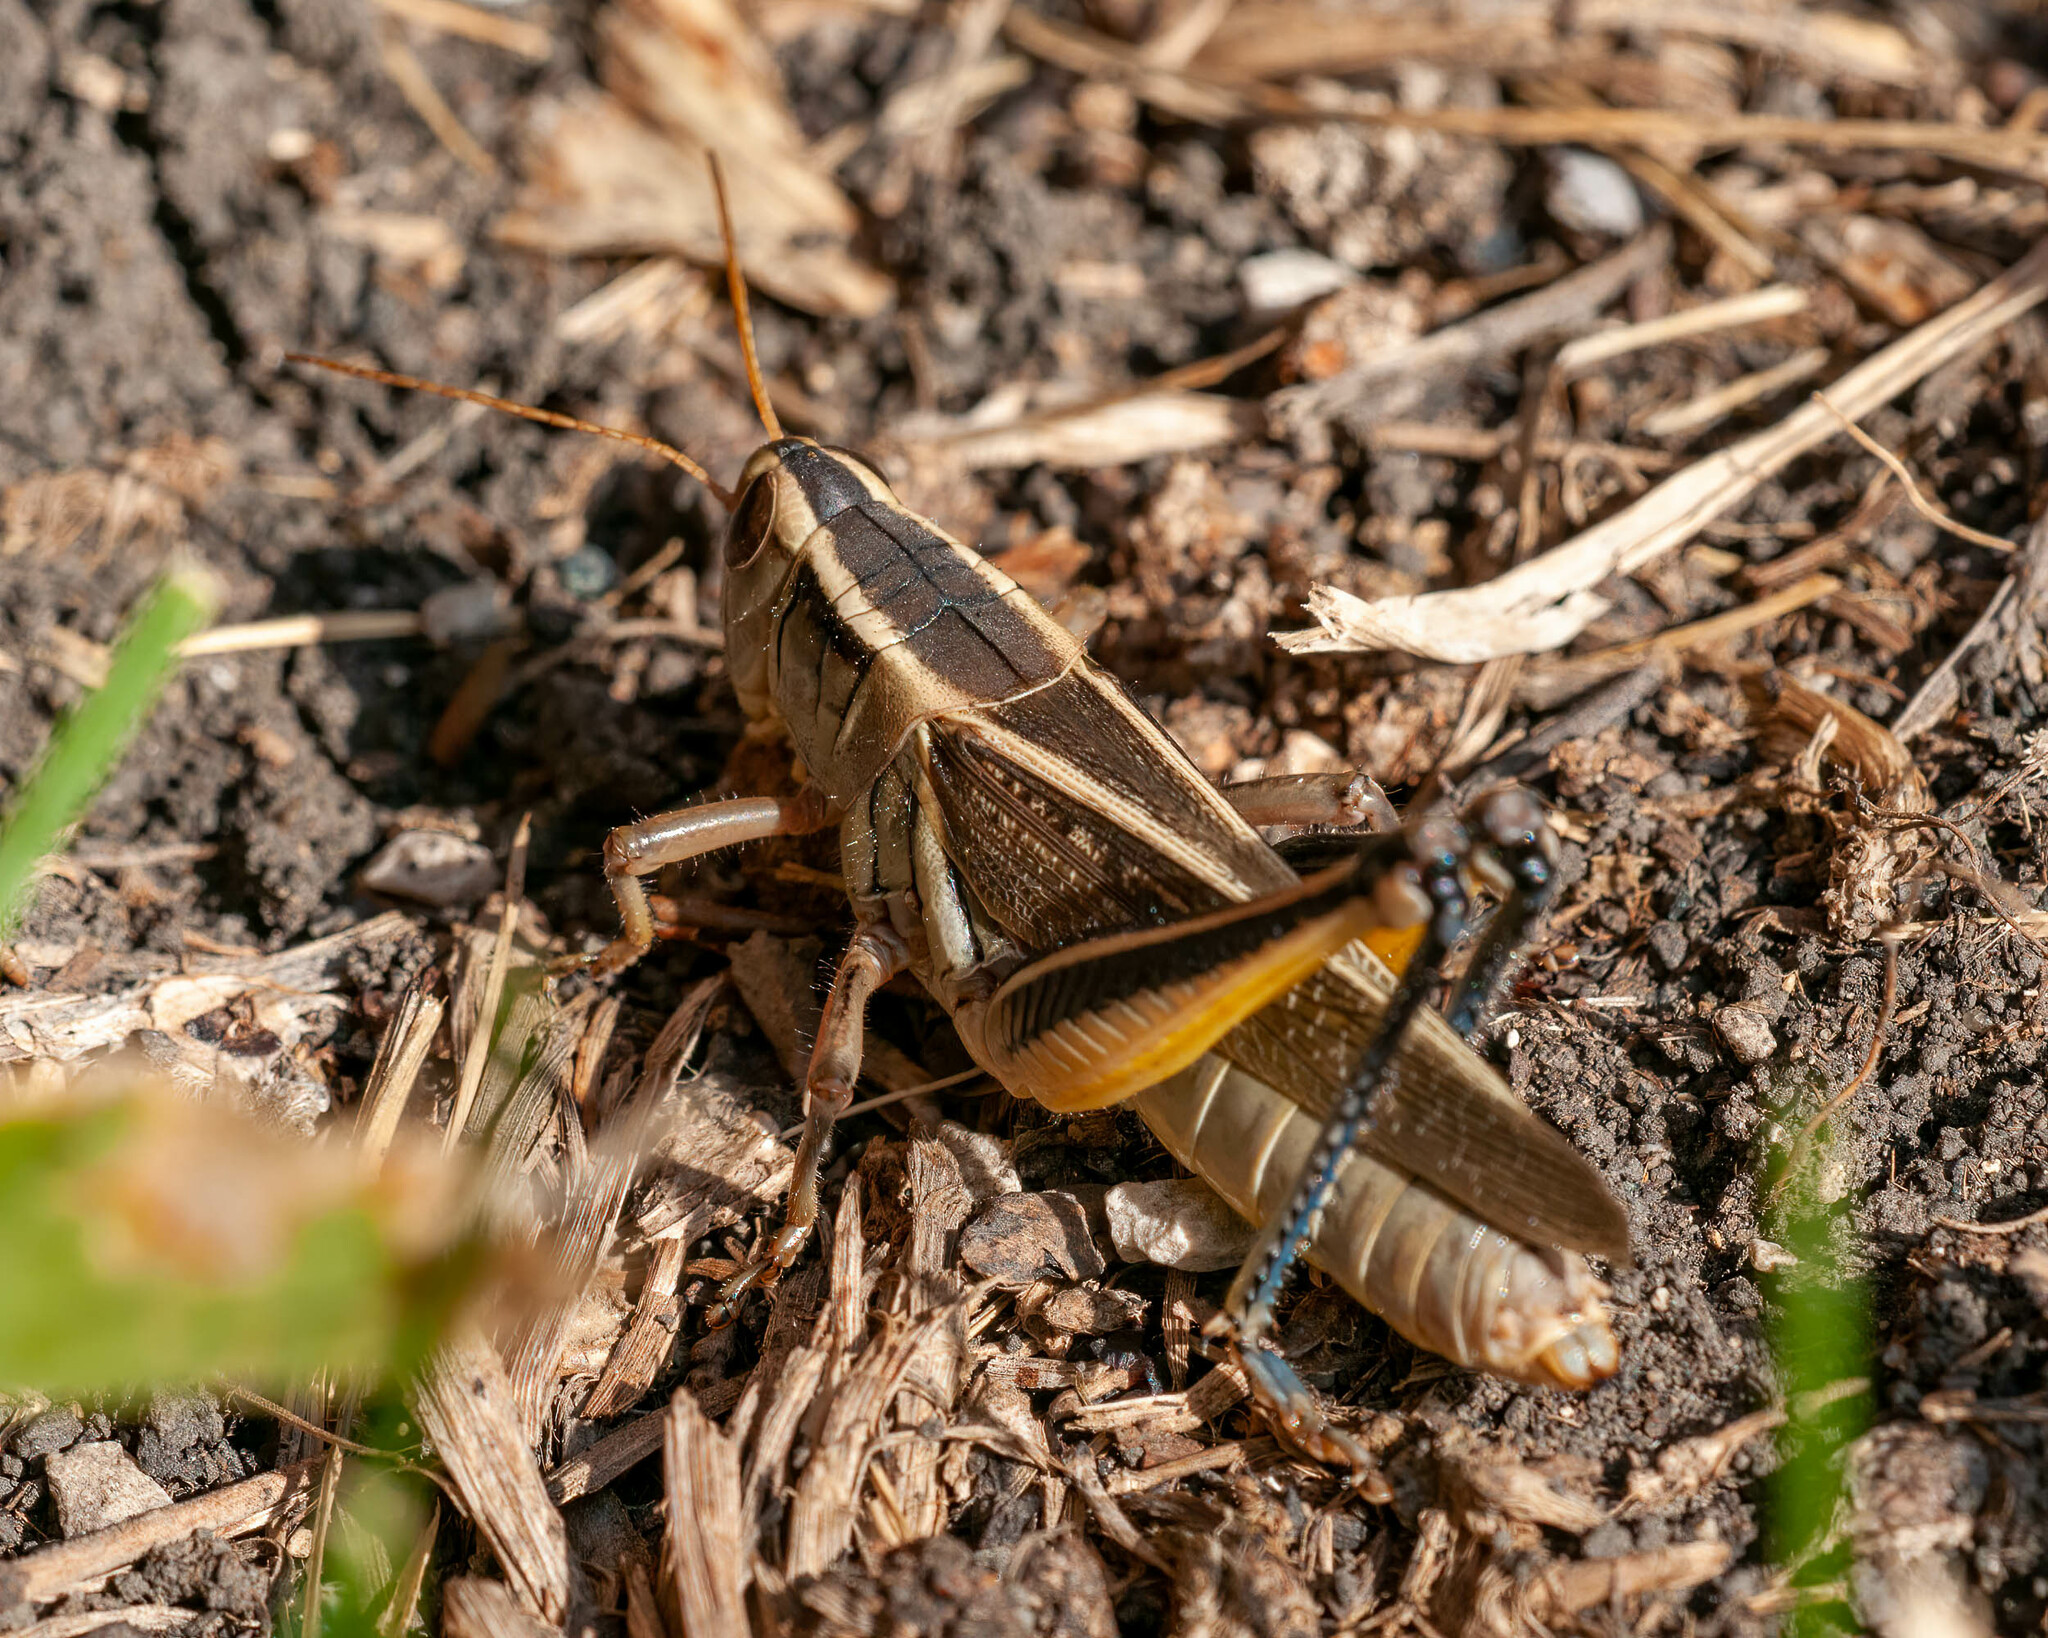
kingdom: Animalia
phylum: Arthropoda
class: Insecta
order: Orthoptera
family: Acrididae
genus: Melanoplus
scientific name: Melanoplus bivittatus
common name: Two-striped grasshopper
